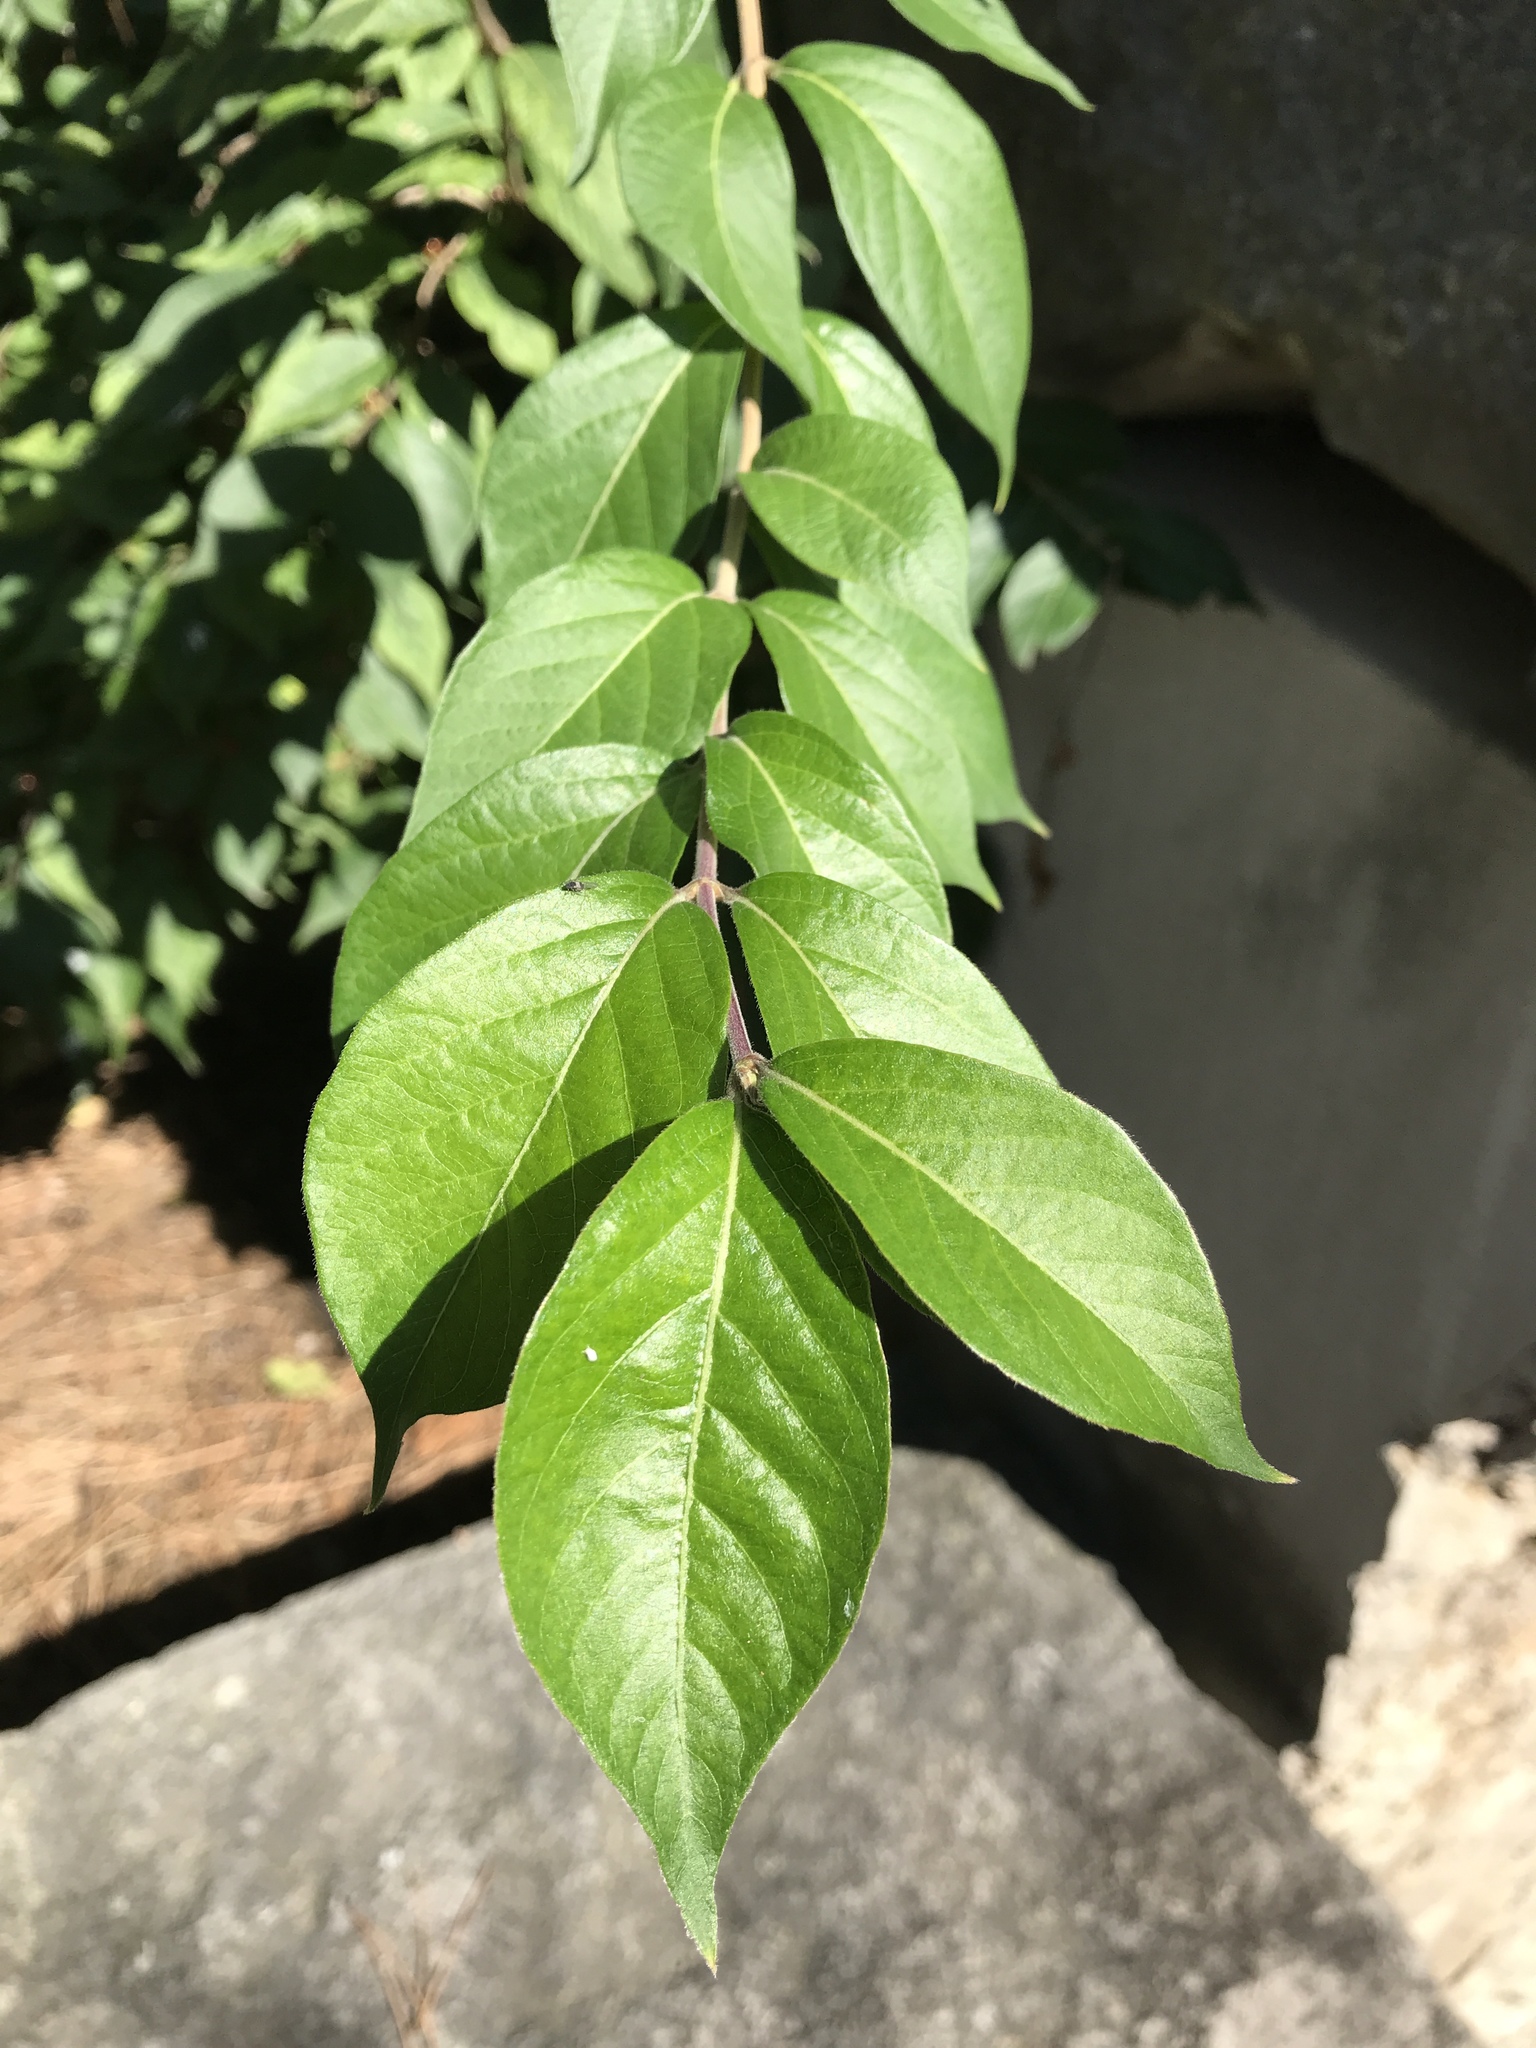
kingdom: Plantae
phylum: Tracheophyta
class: Magnoliopsida
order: Dipsacales
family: Caprifoliaceae
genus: Lonicera
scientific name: Lonicera maackii
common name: Amur honeysuckle
